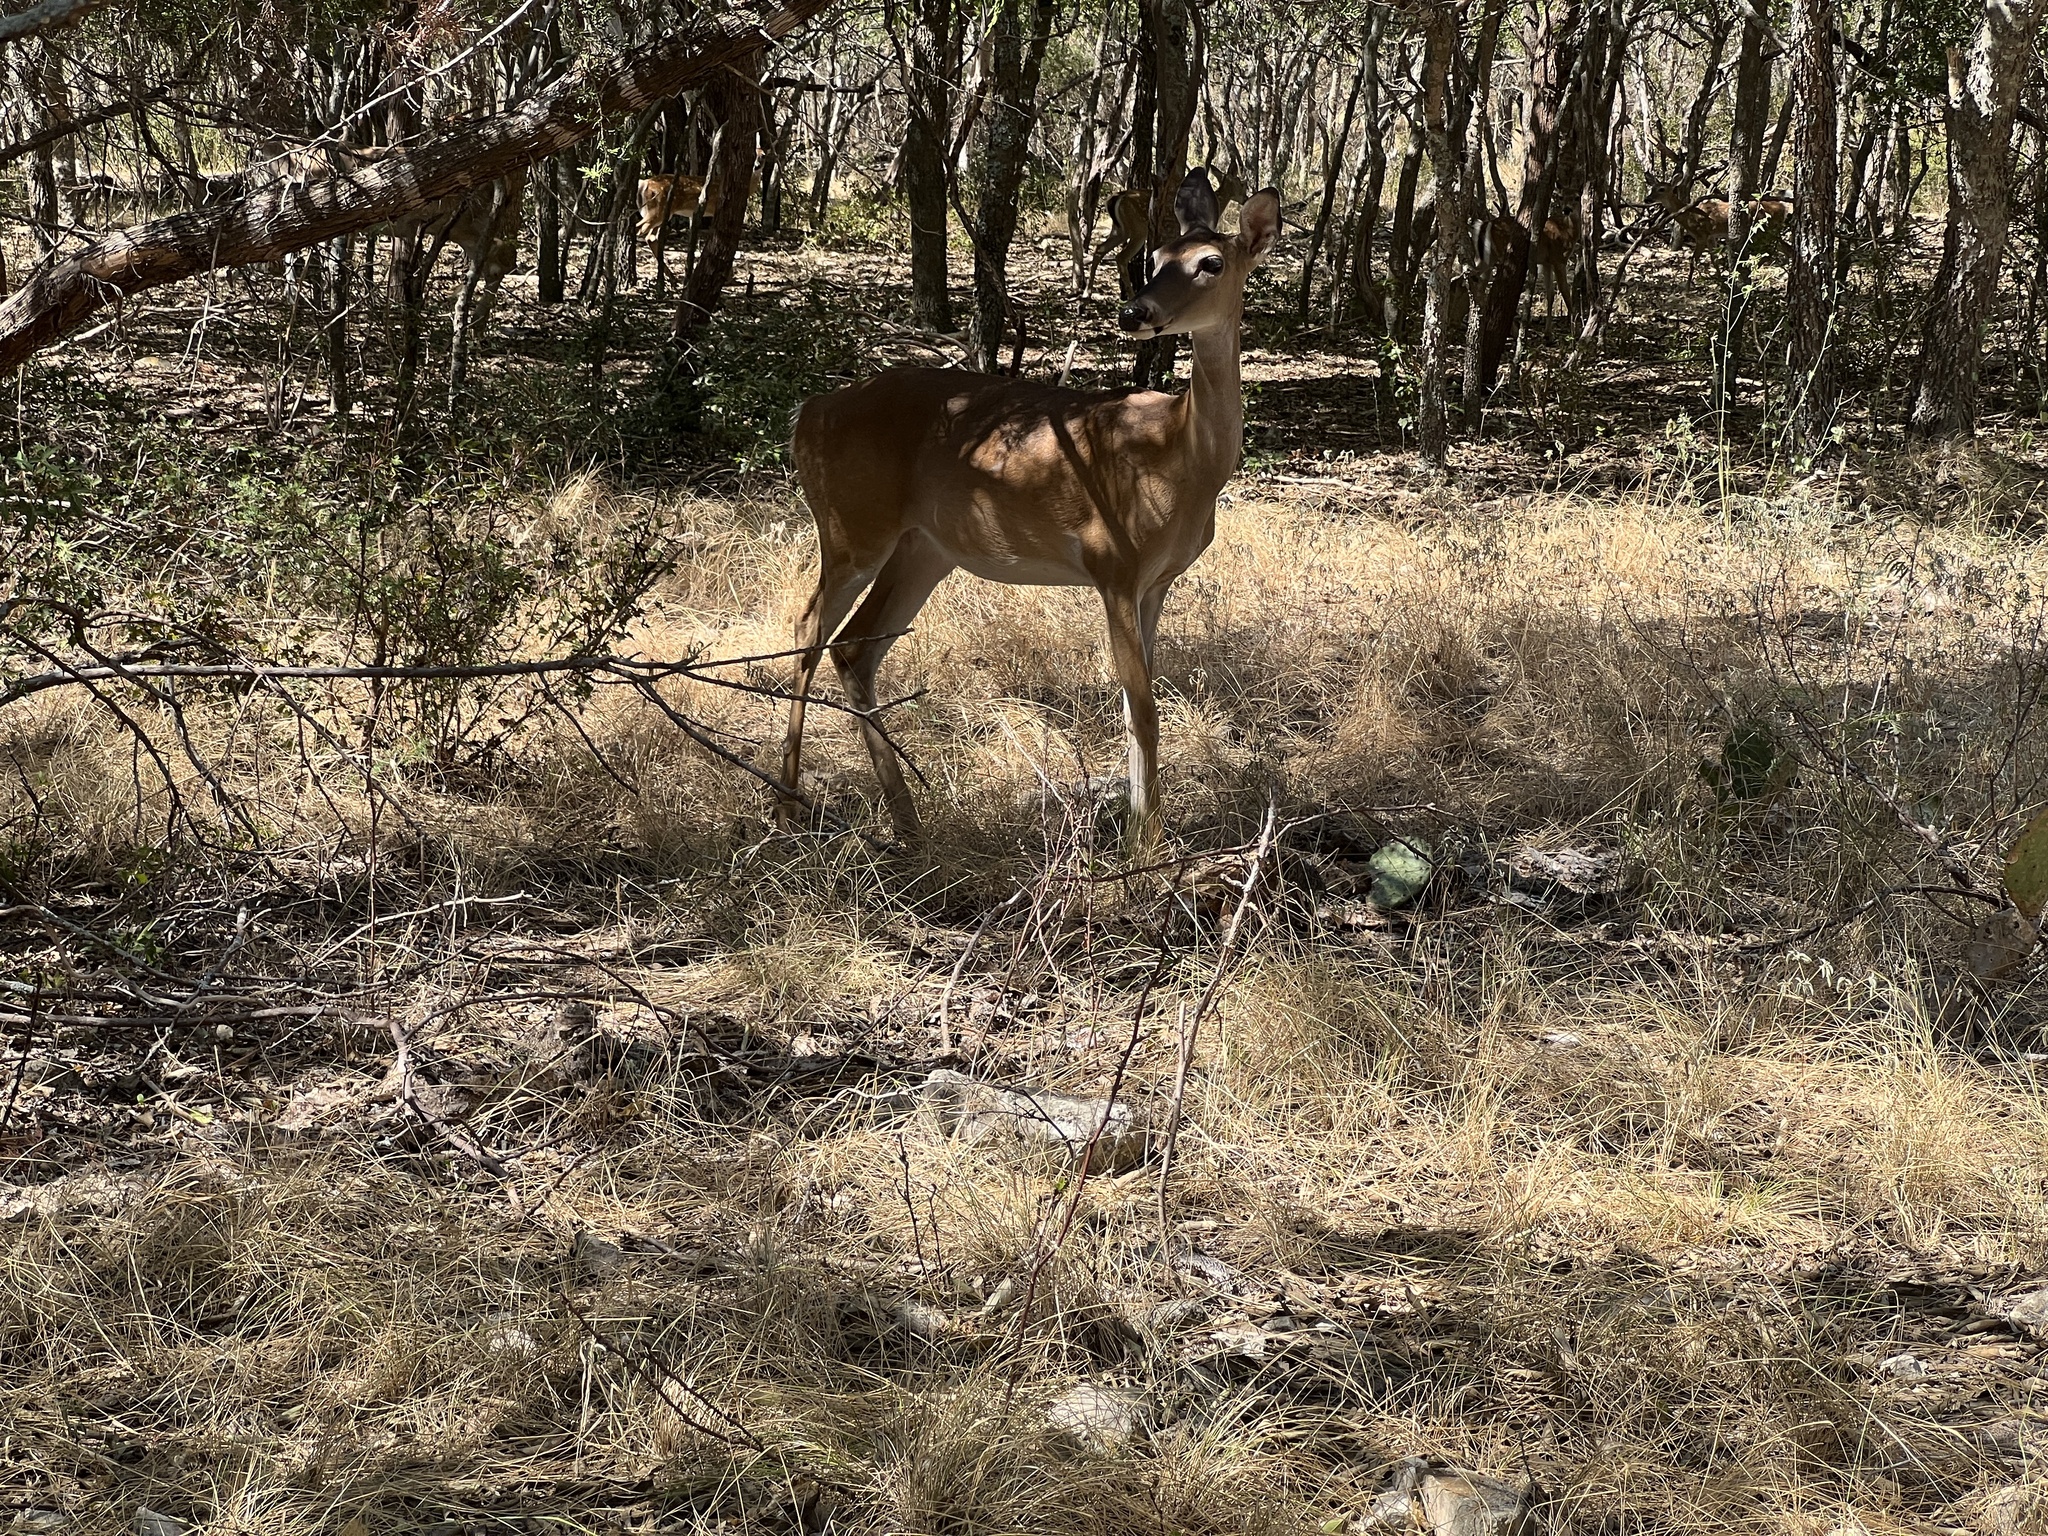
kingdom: Animalia
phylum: Chordata
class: Mammalia
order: Artiodactyla
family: Cervidae
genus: Odocoileus
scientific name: Odocoileus virginianus
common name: White-tailed deer
